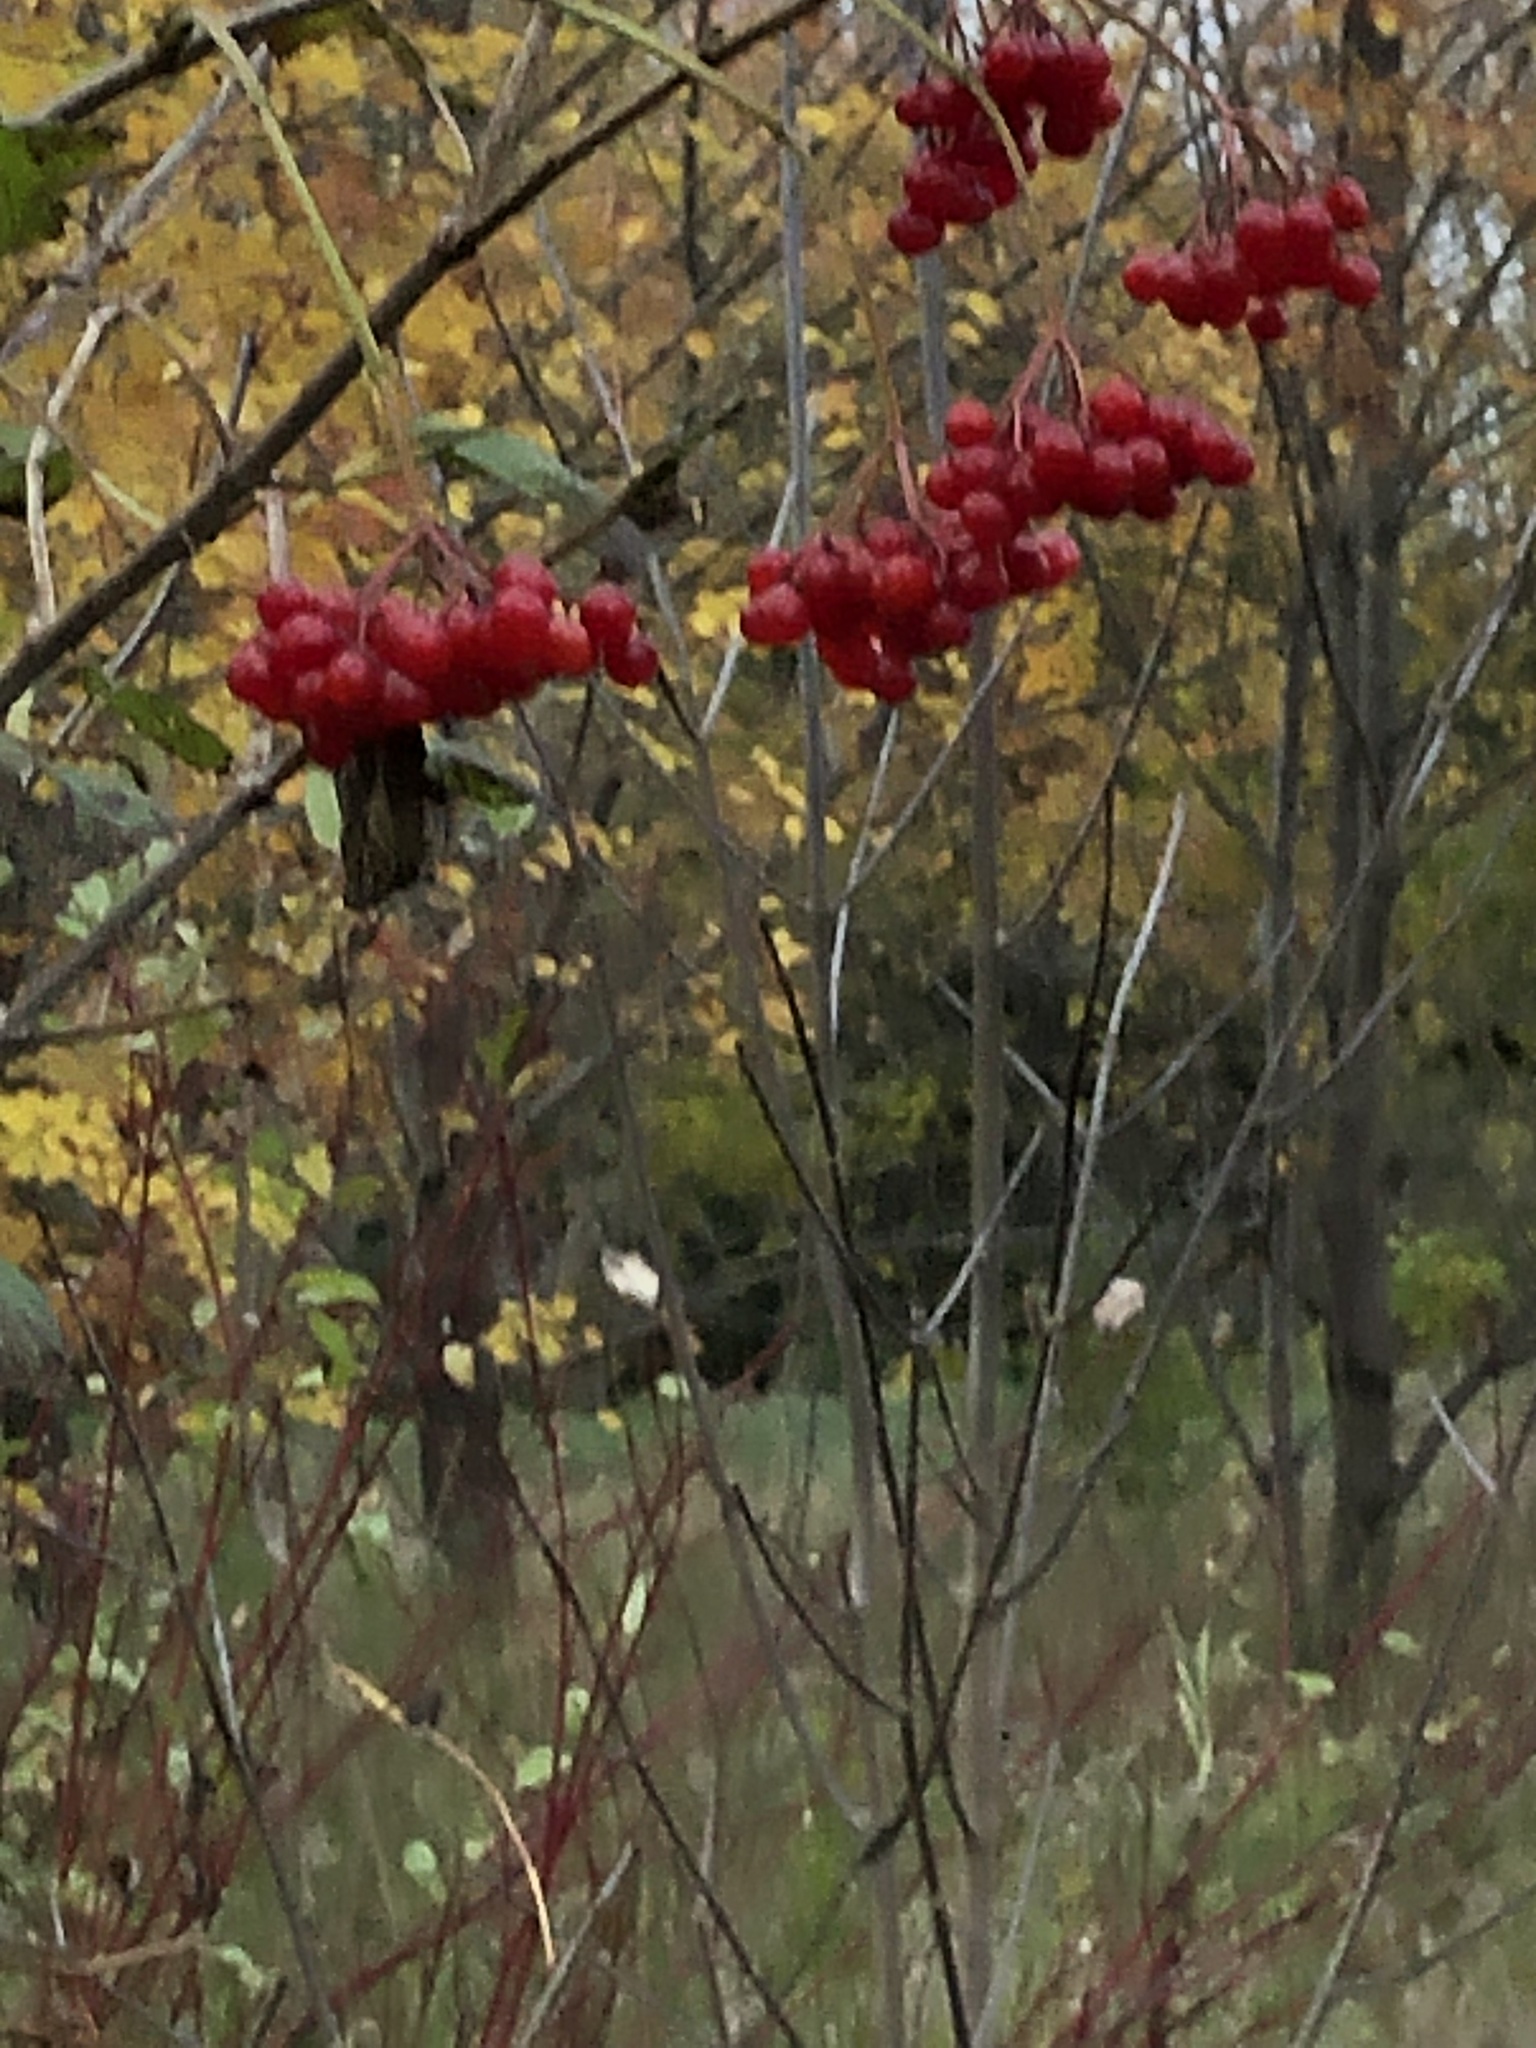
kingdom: Plantae
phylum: Tracheophyta
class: Magnoliopsida
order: Dipsacales
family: Viburnaceae
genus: Viburnum
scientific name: Viburnum opulus
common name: Guelder-rose
